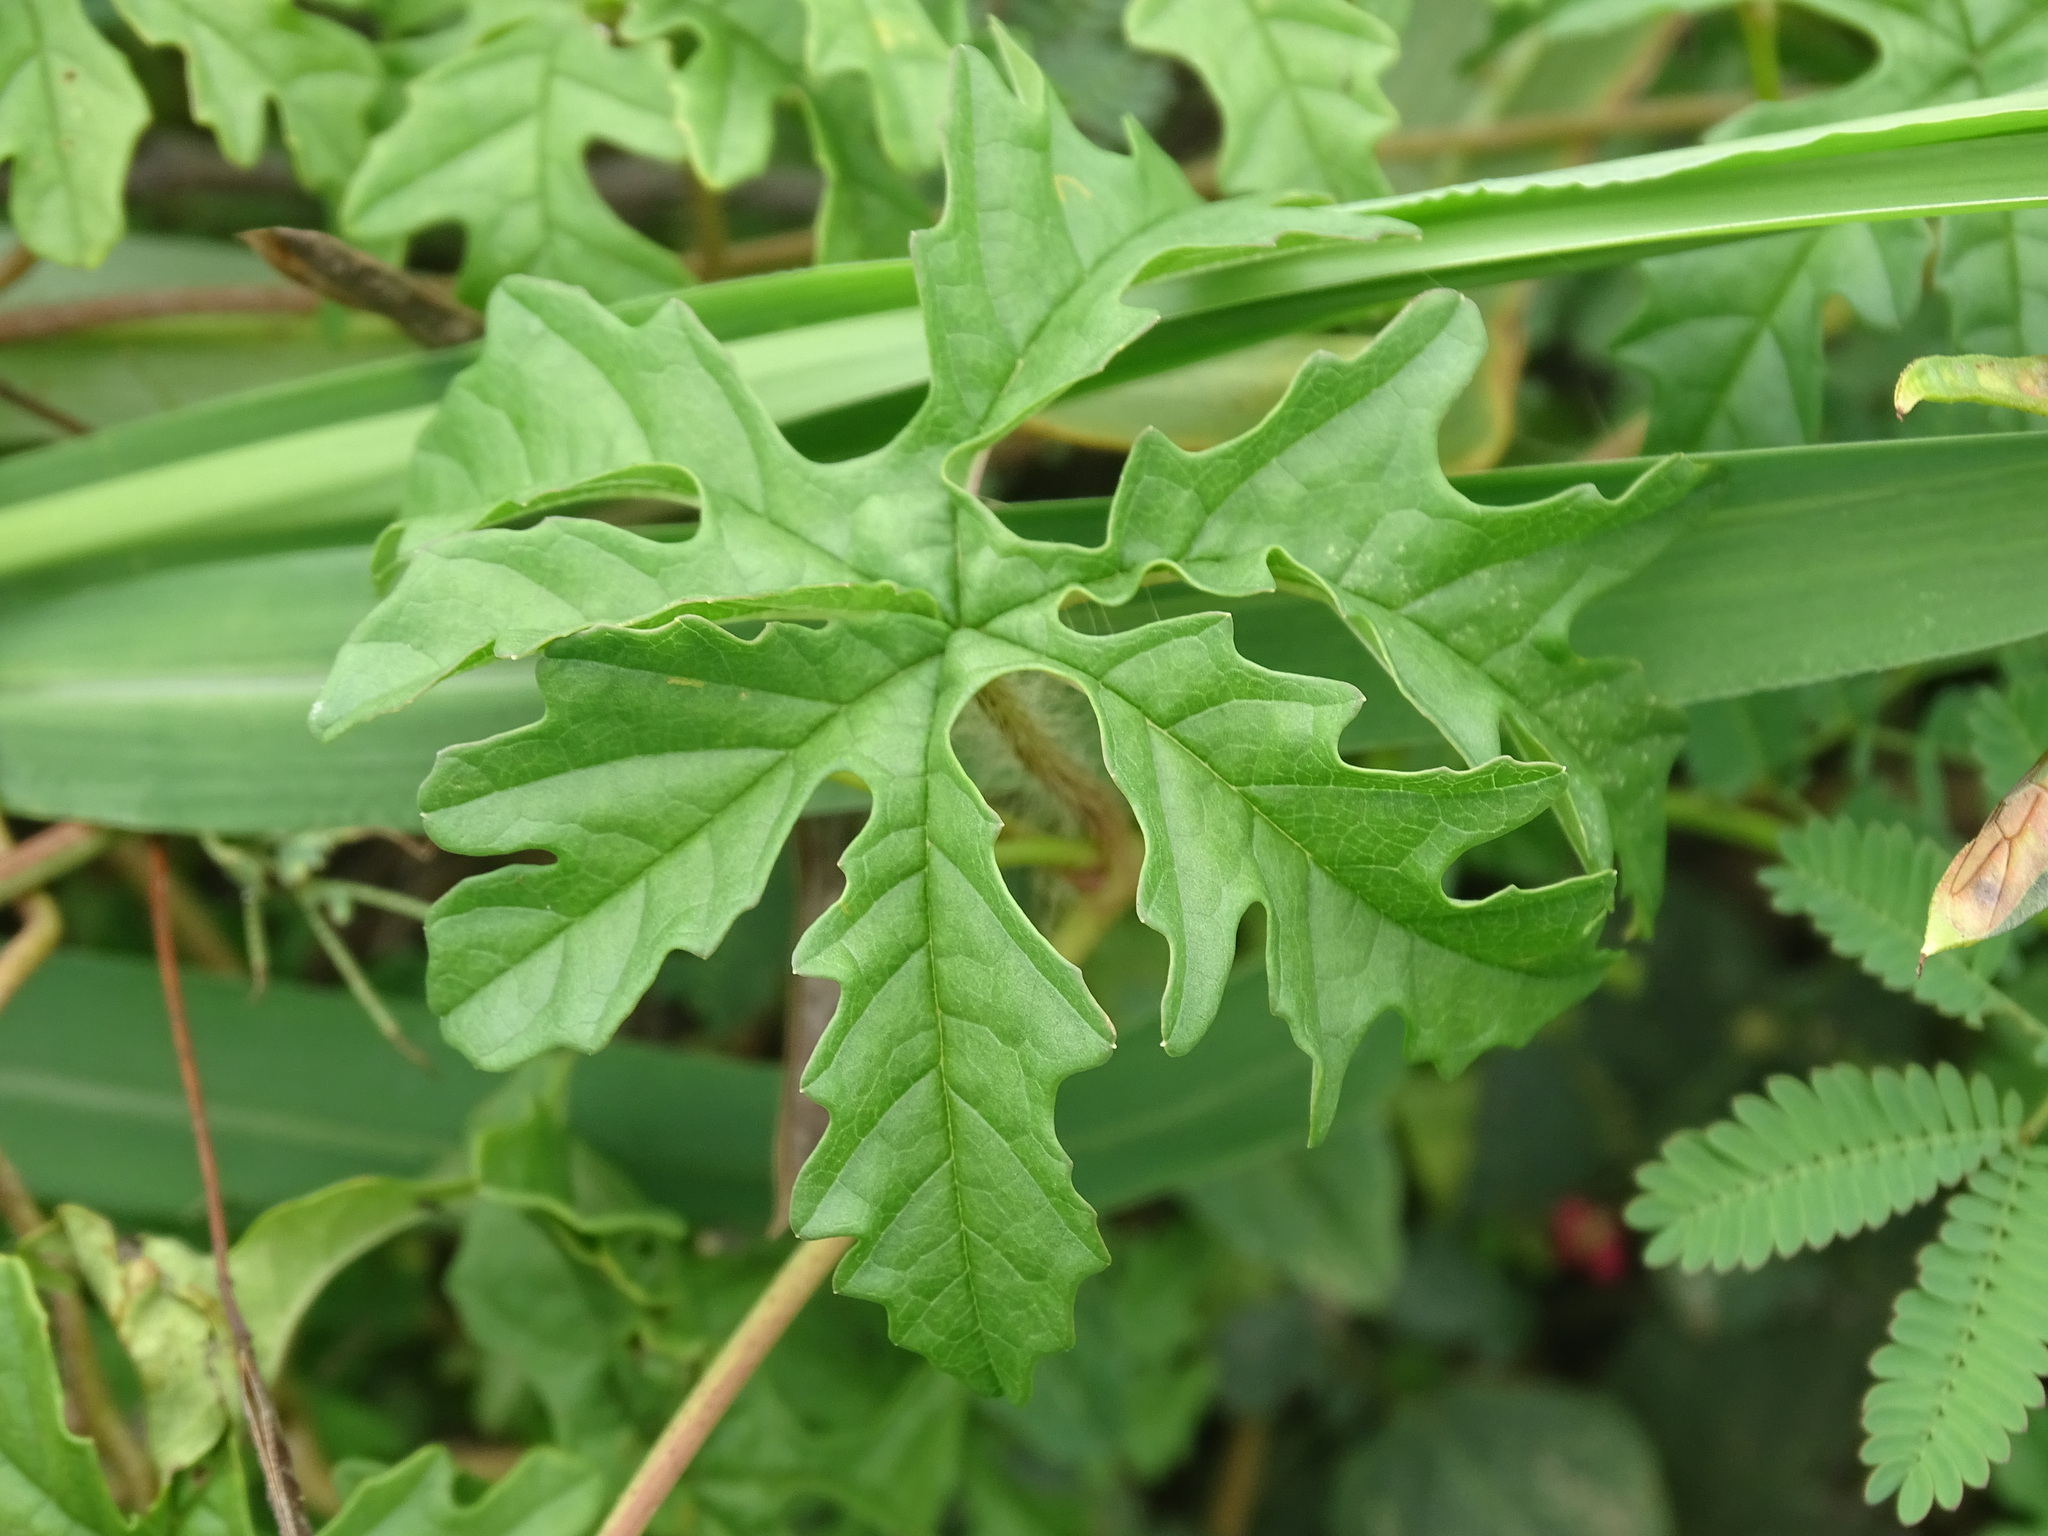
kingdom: Plantae
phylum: Tracheophyta
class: Magnoliopsida
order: Solanales
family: Convolvulaceae
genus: Distimake
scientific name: Distimake dissectus
